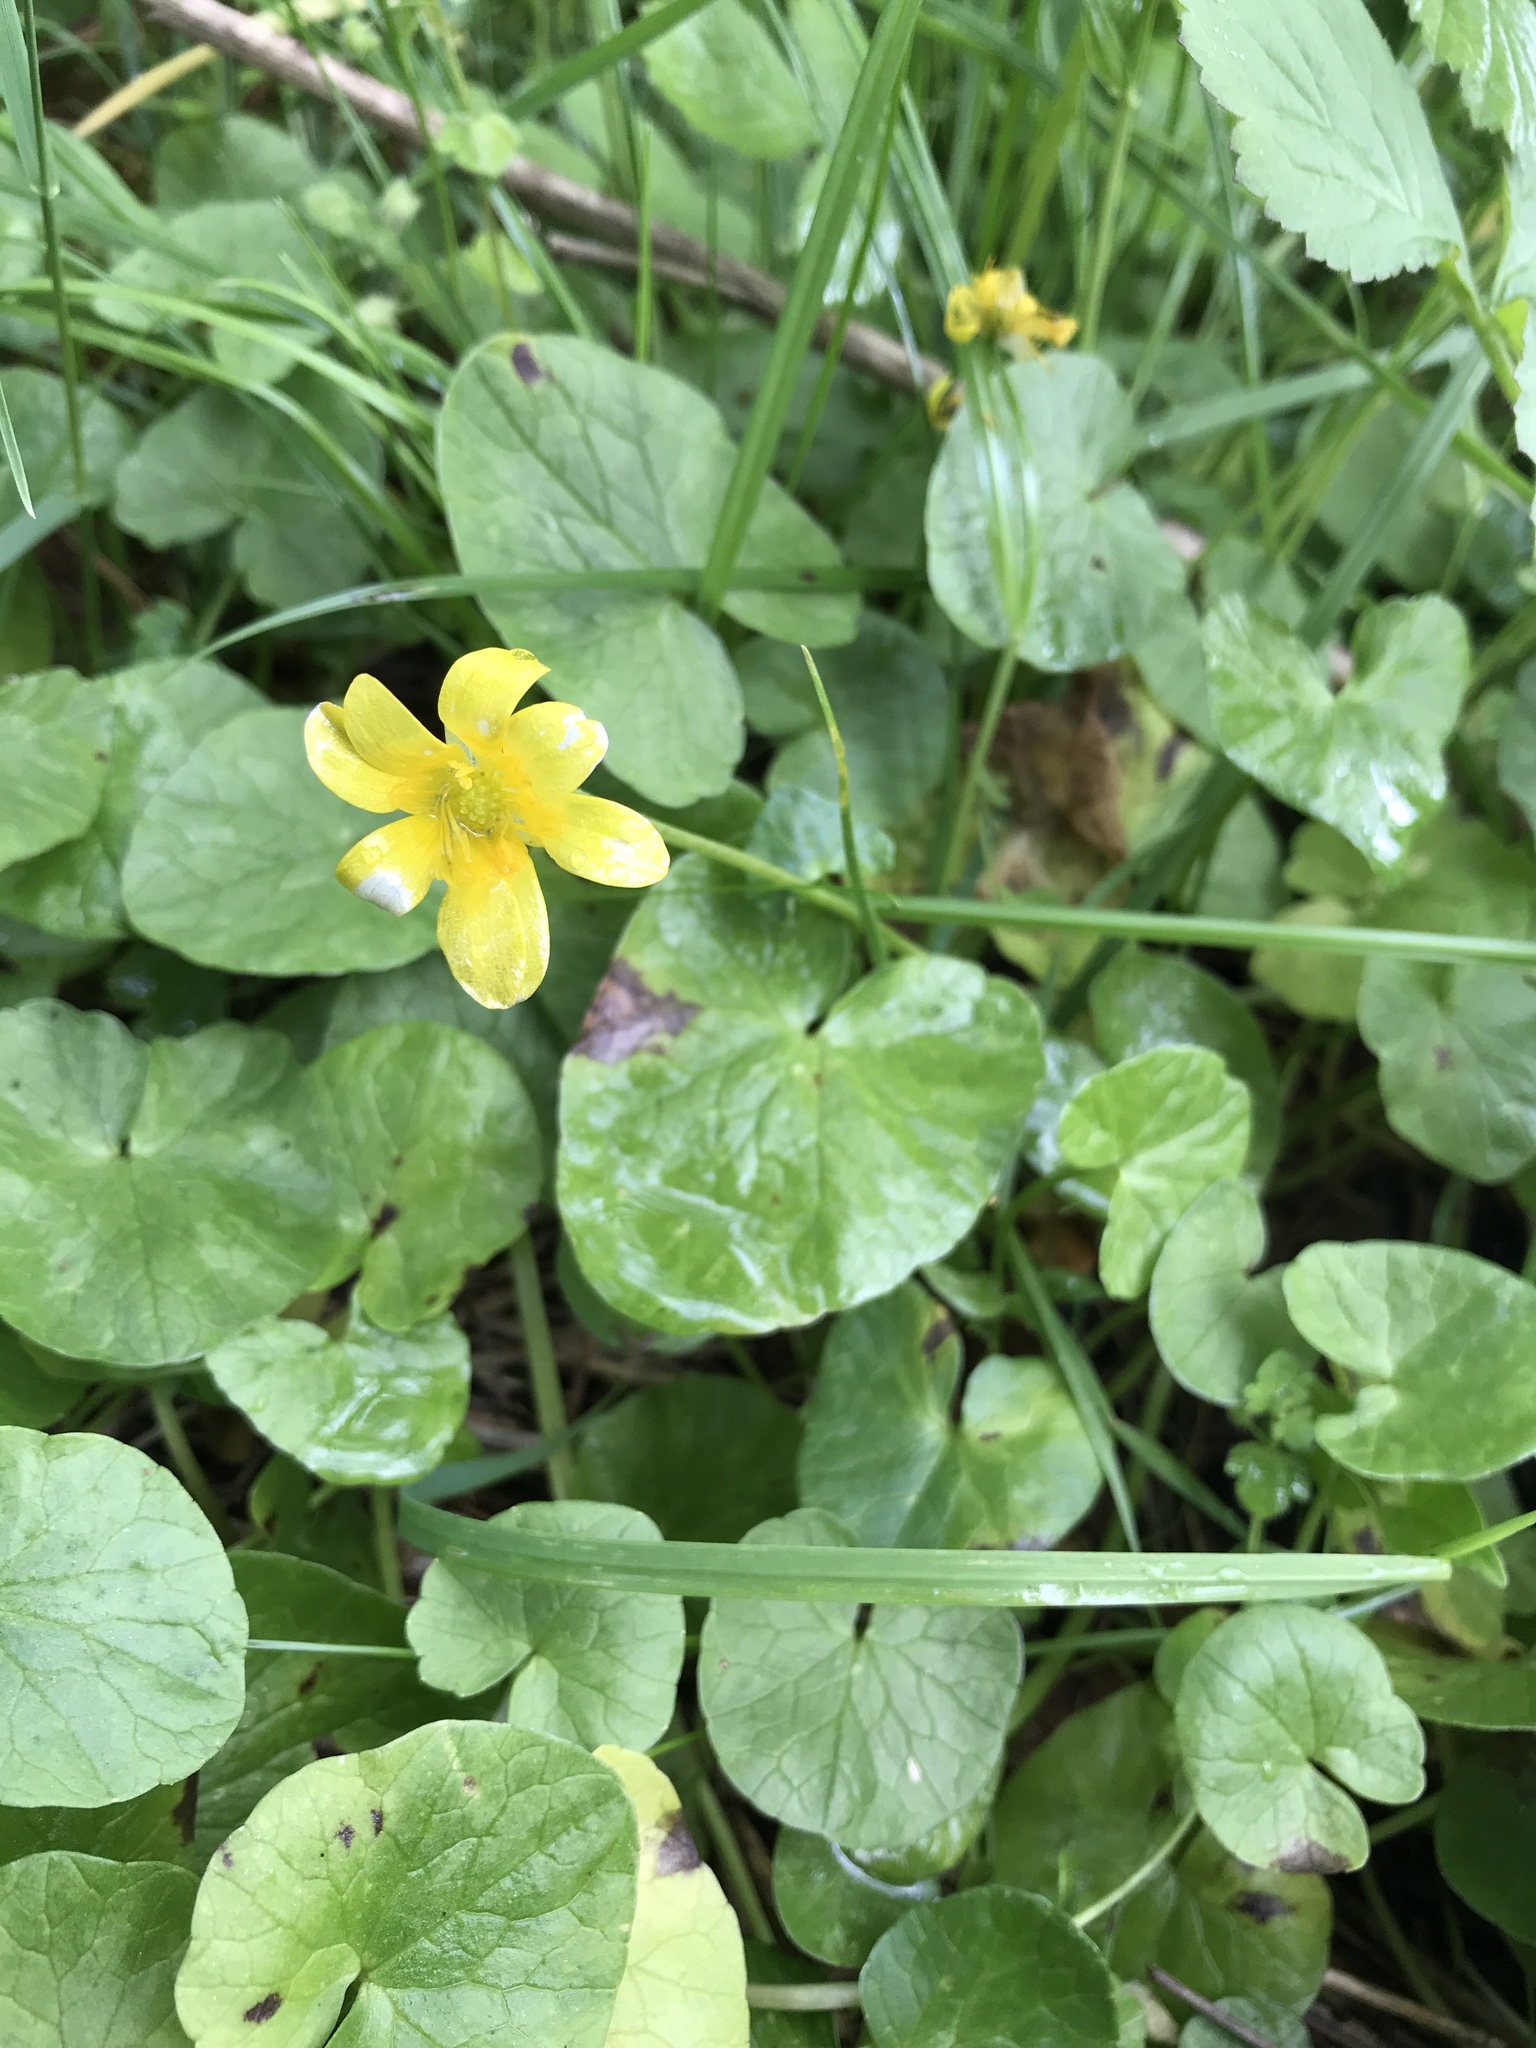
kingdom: Plantae
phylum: Tracheophyta
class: Magnoliopsida
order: Ranunculales
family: Ranunculaceae
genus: Ficaria
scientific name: Ficaria verna
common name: Lesser celandine
